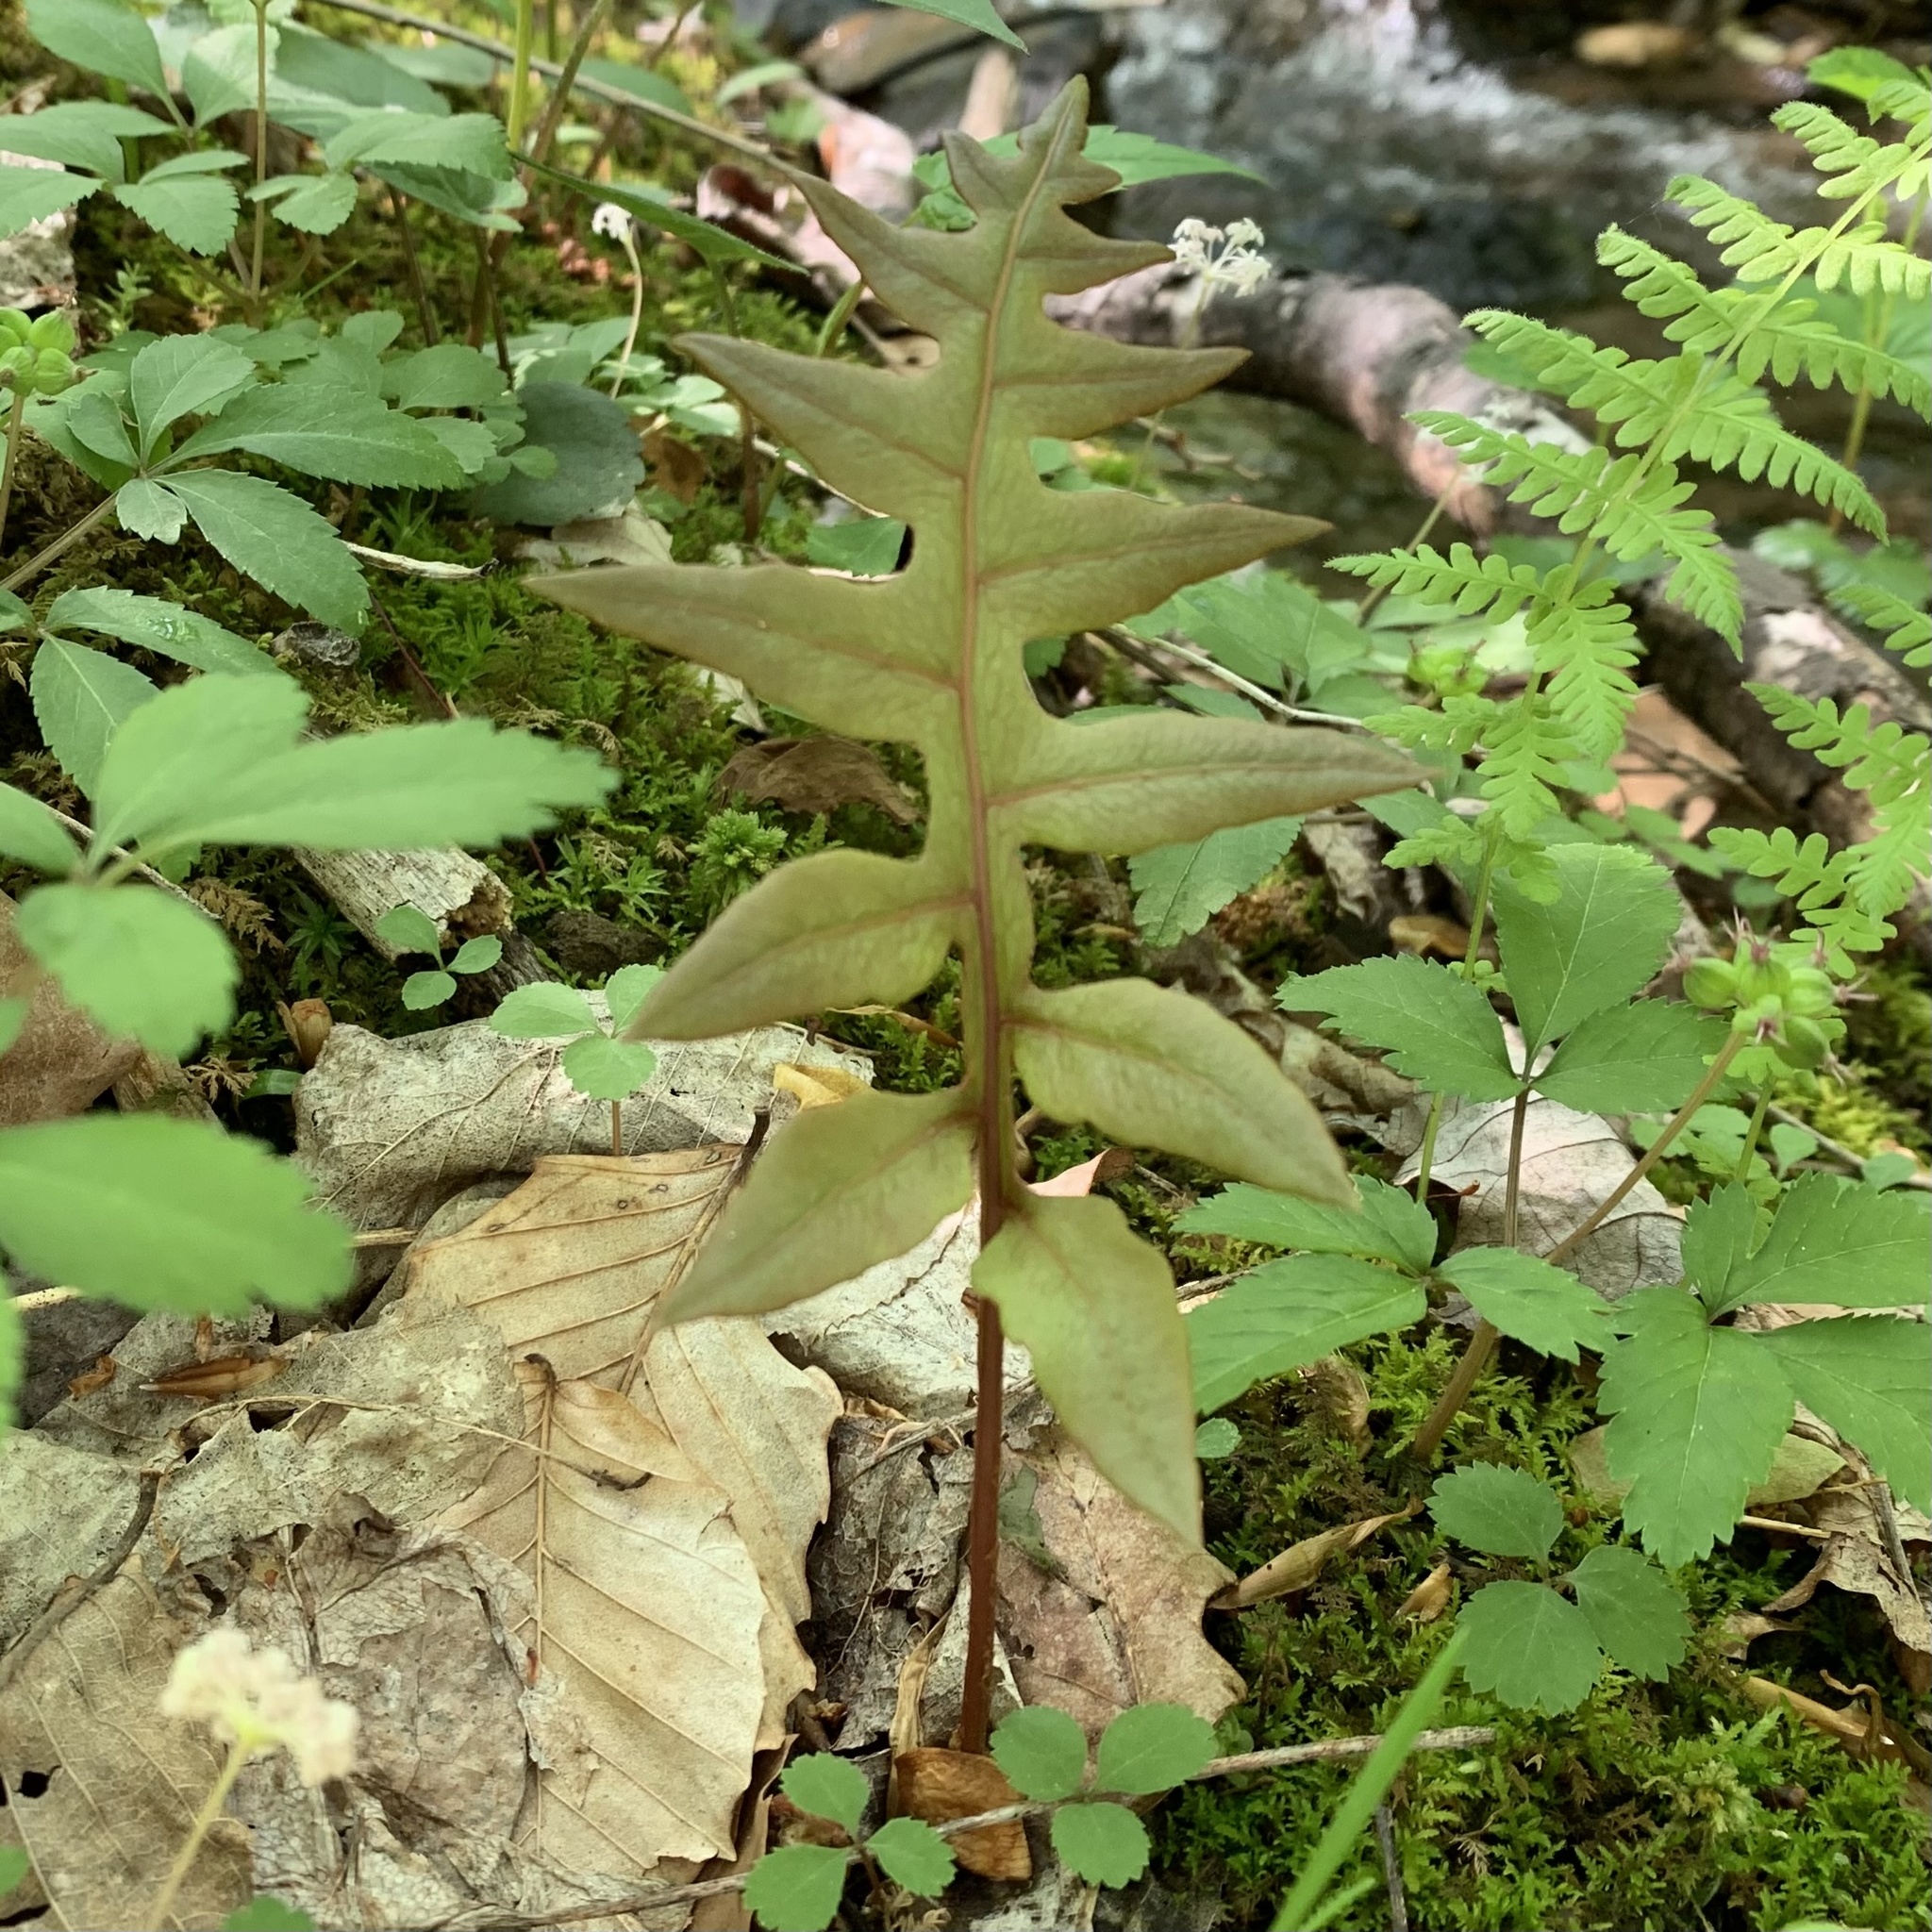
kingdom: Plantae
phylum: Tracheophyta
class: Polypodiopsida
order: Polypodiales
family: Blechnaceae
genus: Lorinseria
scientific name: Lorinseria areolata
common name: Dwarf chain fern
